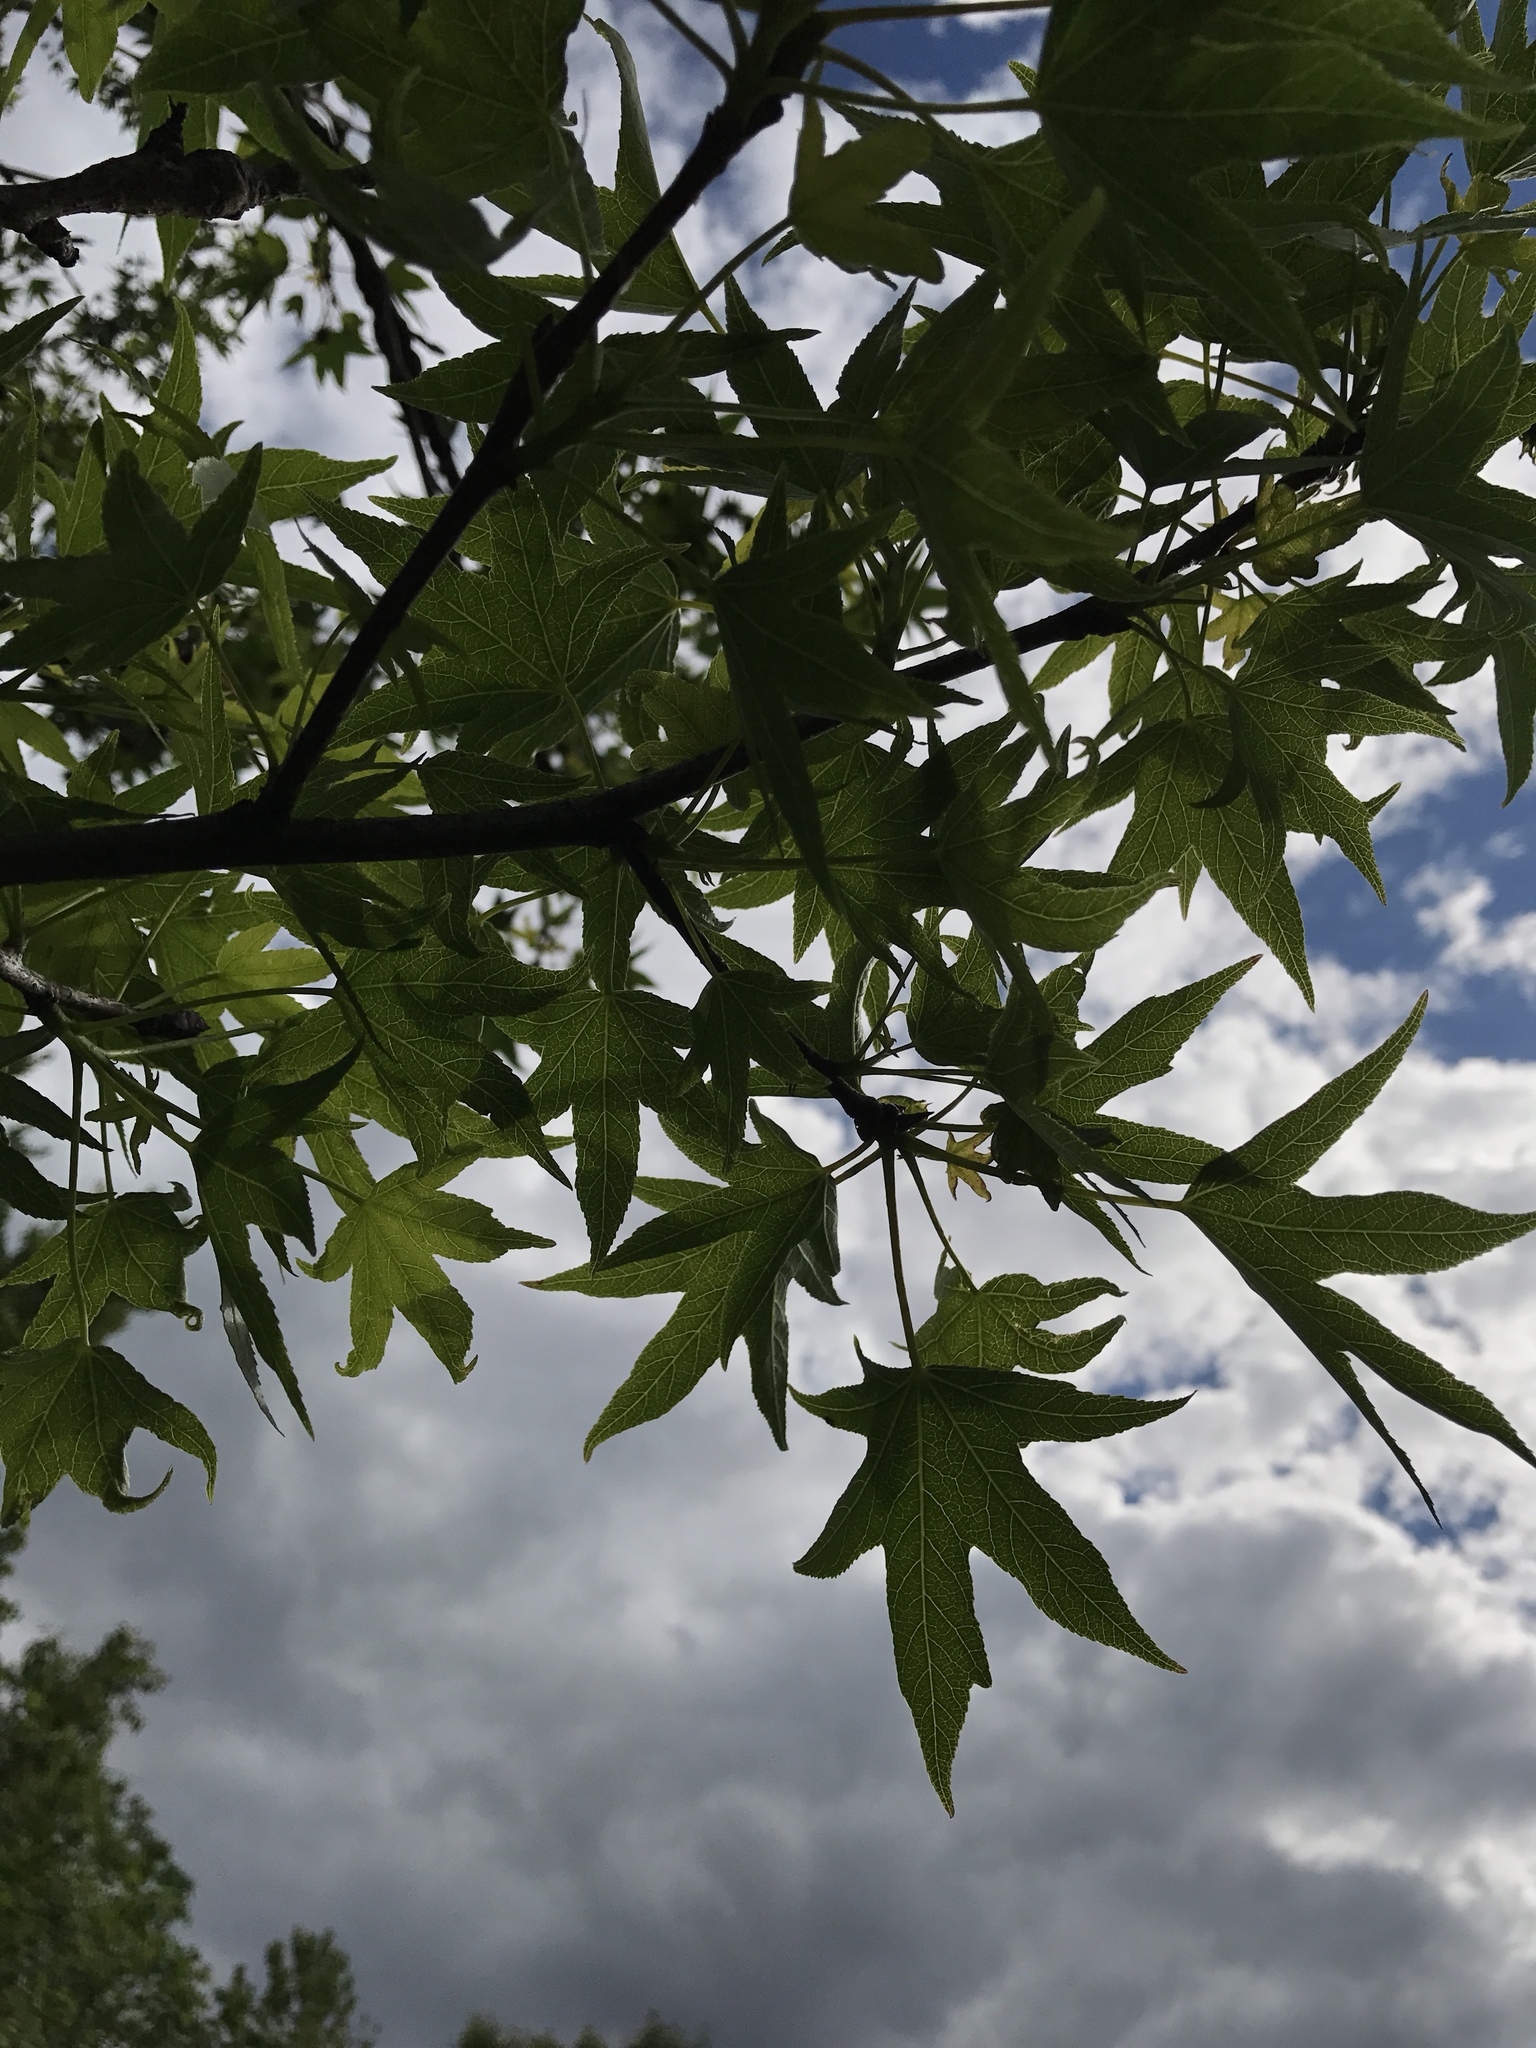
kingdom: Plantae
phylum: Tracheophyta
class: Magnoliopsida
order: Saxifragales
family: Altingiaceae
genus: Liquidambar
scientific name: Liquidambar styraciflua
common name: Sweet gum
